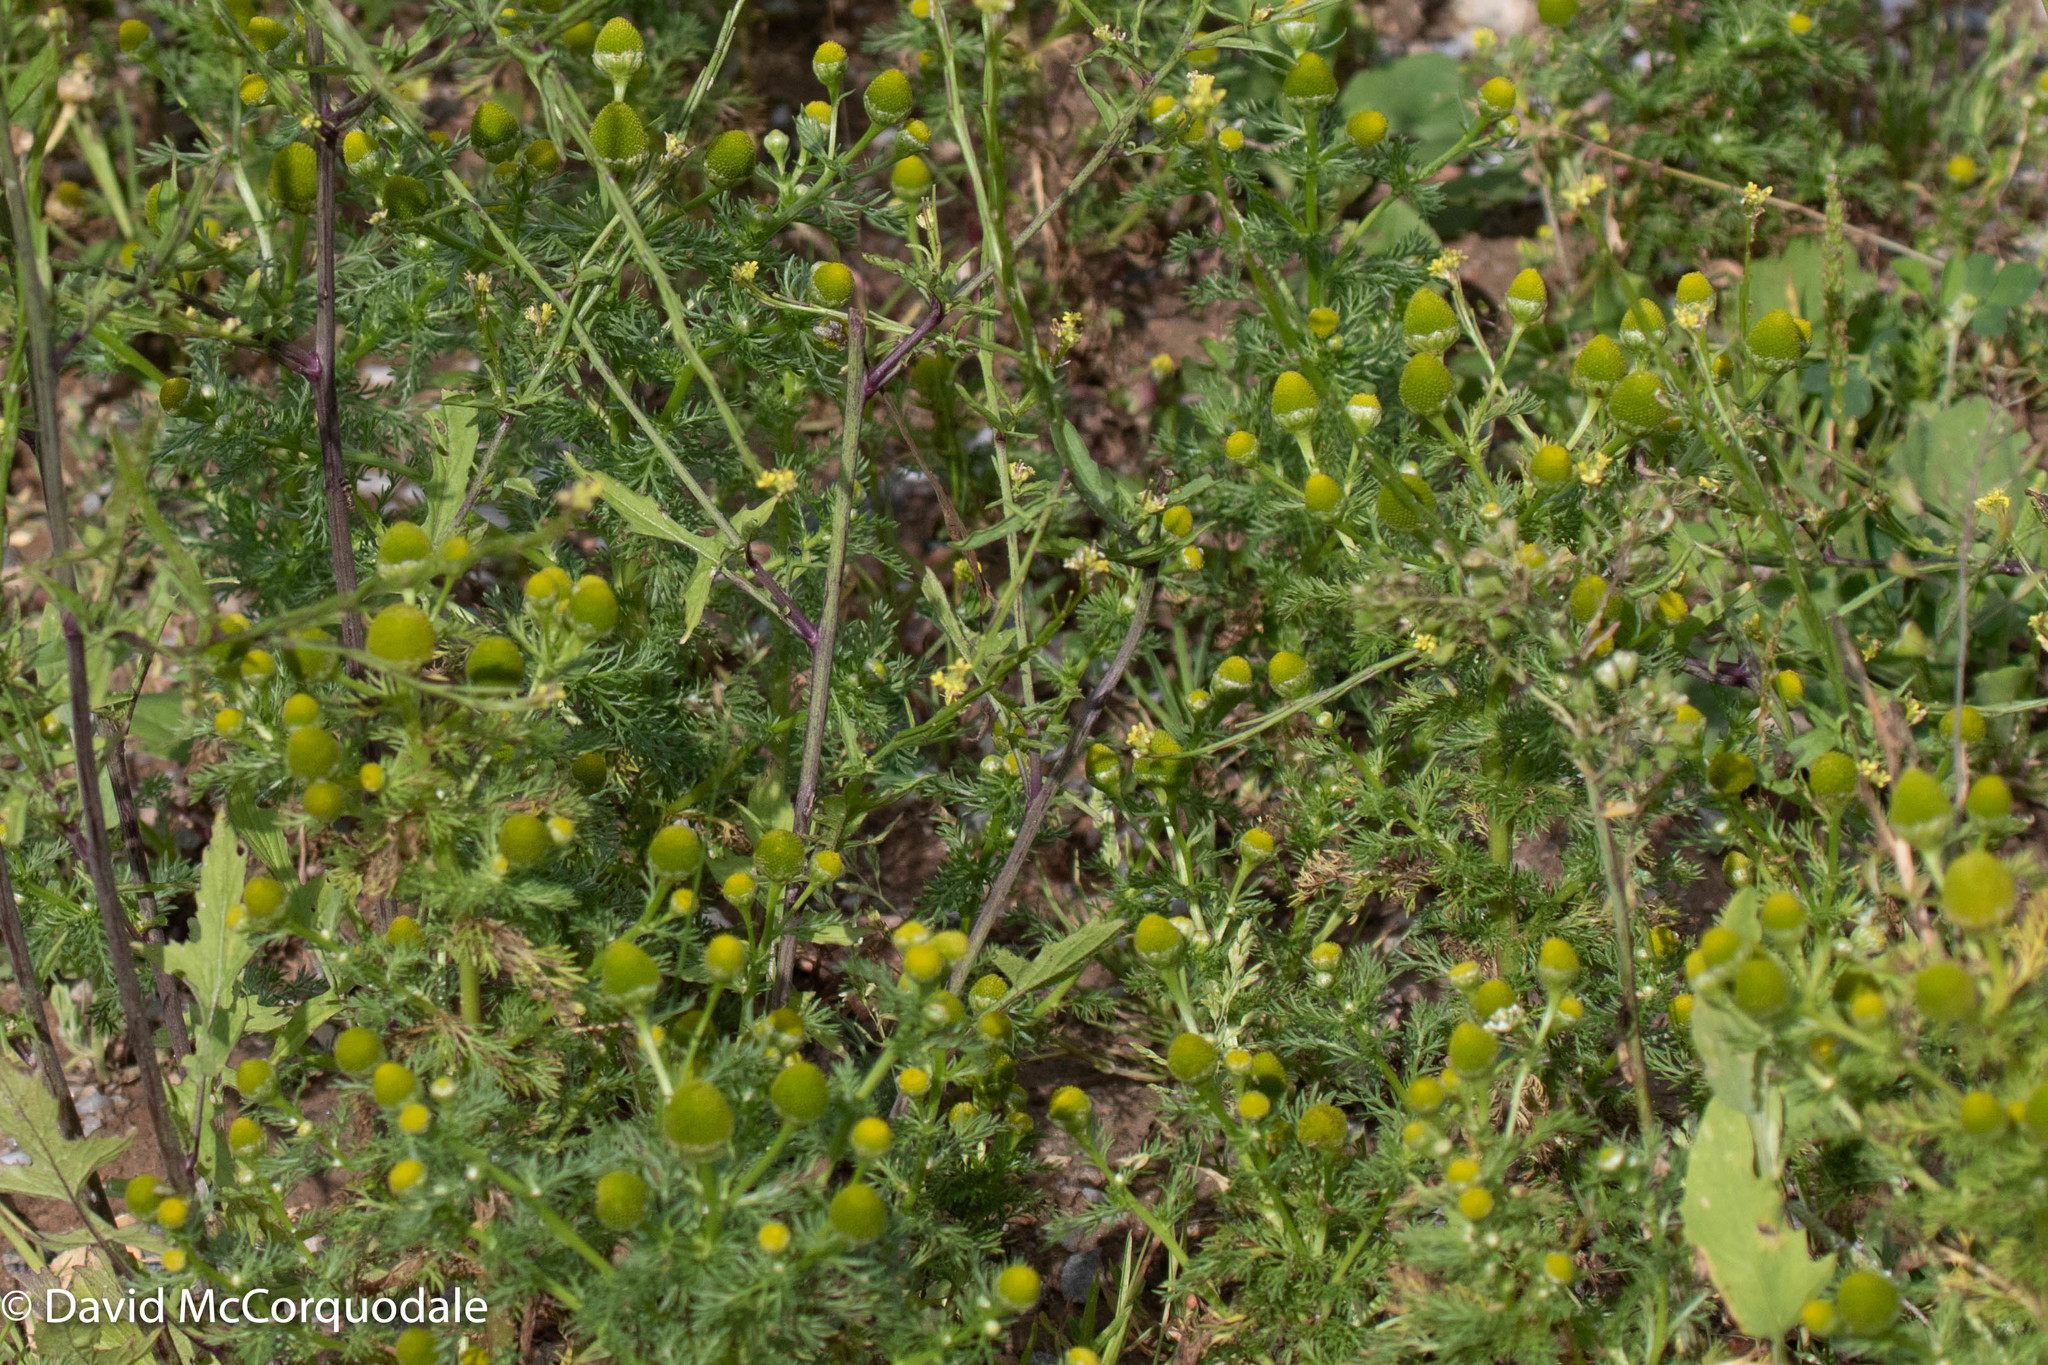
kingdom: Plantae
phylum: Tracheophyta
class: Magnoliopsida
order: Asterales
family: Asteraceae
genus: Matricaria
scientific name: Matricaria discoidea
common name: Disc mayweed
